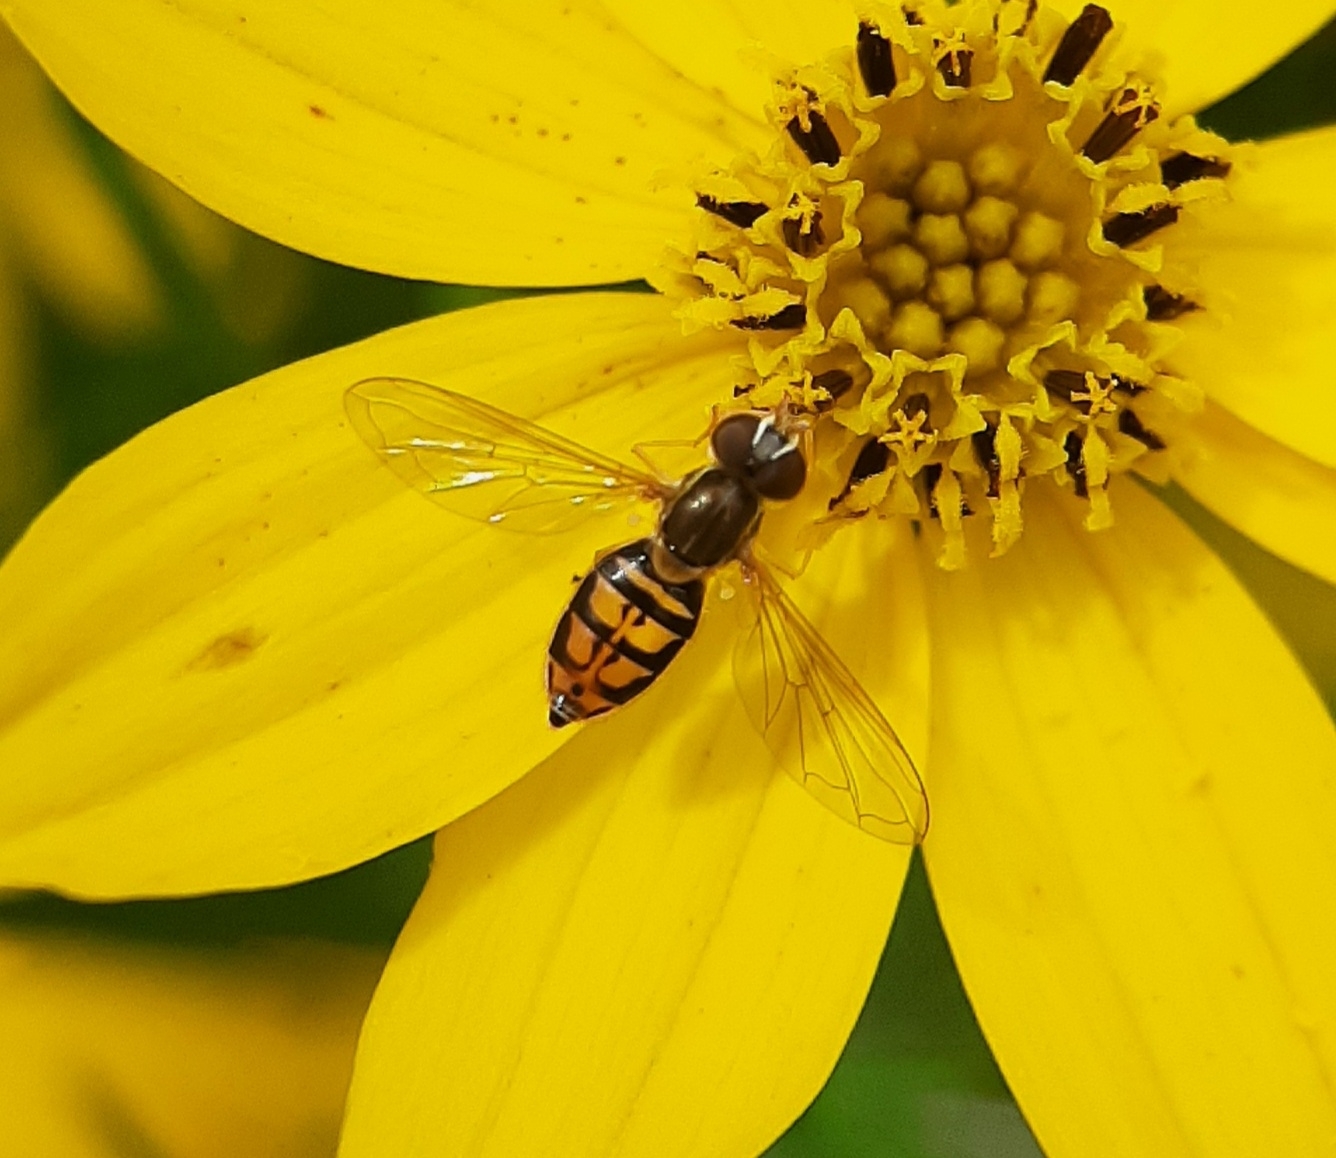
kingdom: Animalia
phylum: Arthropoda
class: Insecta
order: Diptera
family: Syrphidae
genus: Toxomerus
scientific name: Toxomerus marginatus
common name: Syrphid fly
